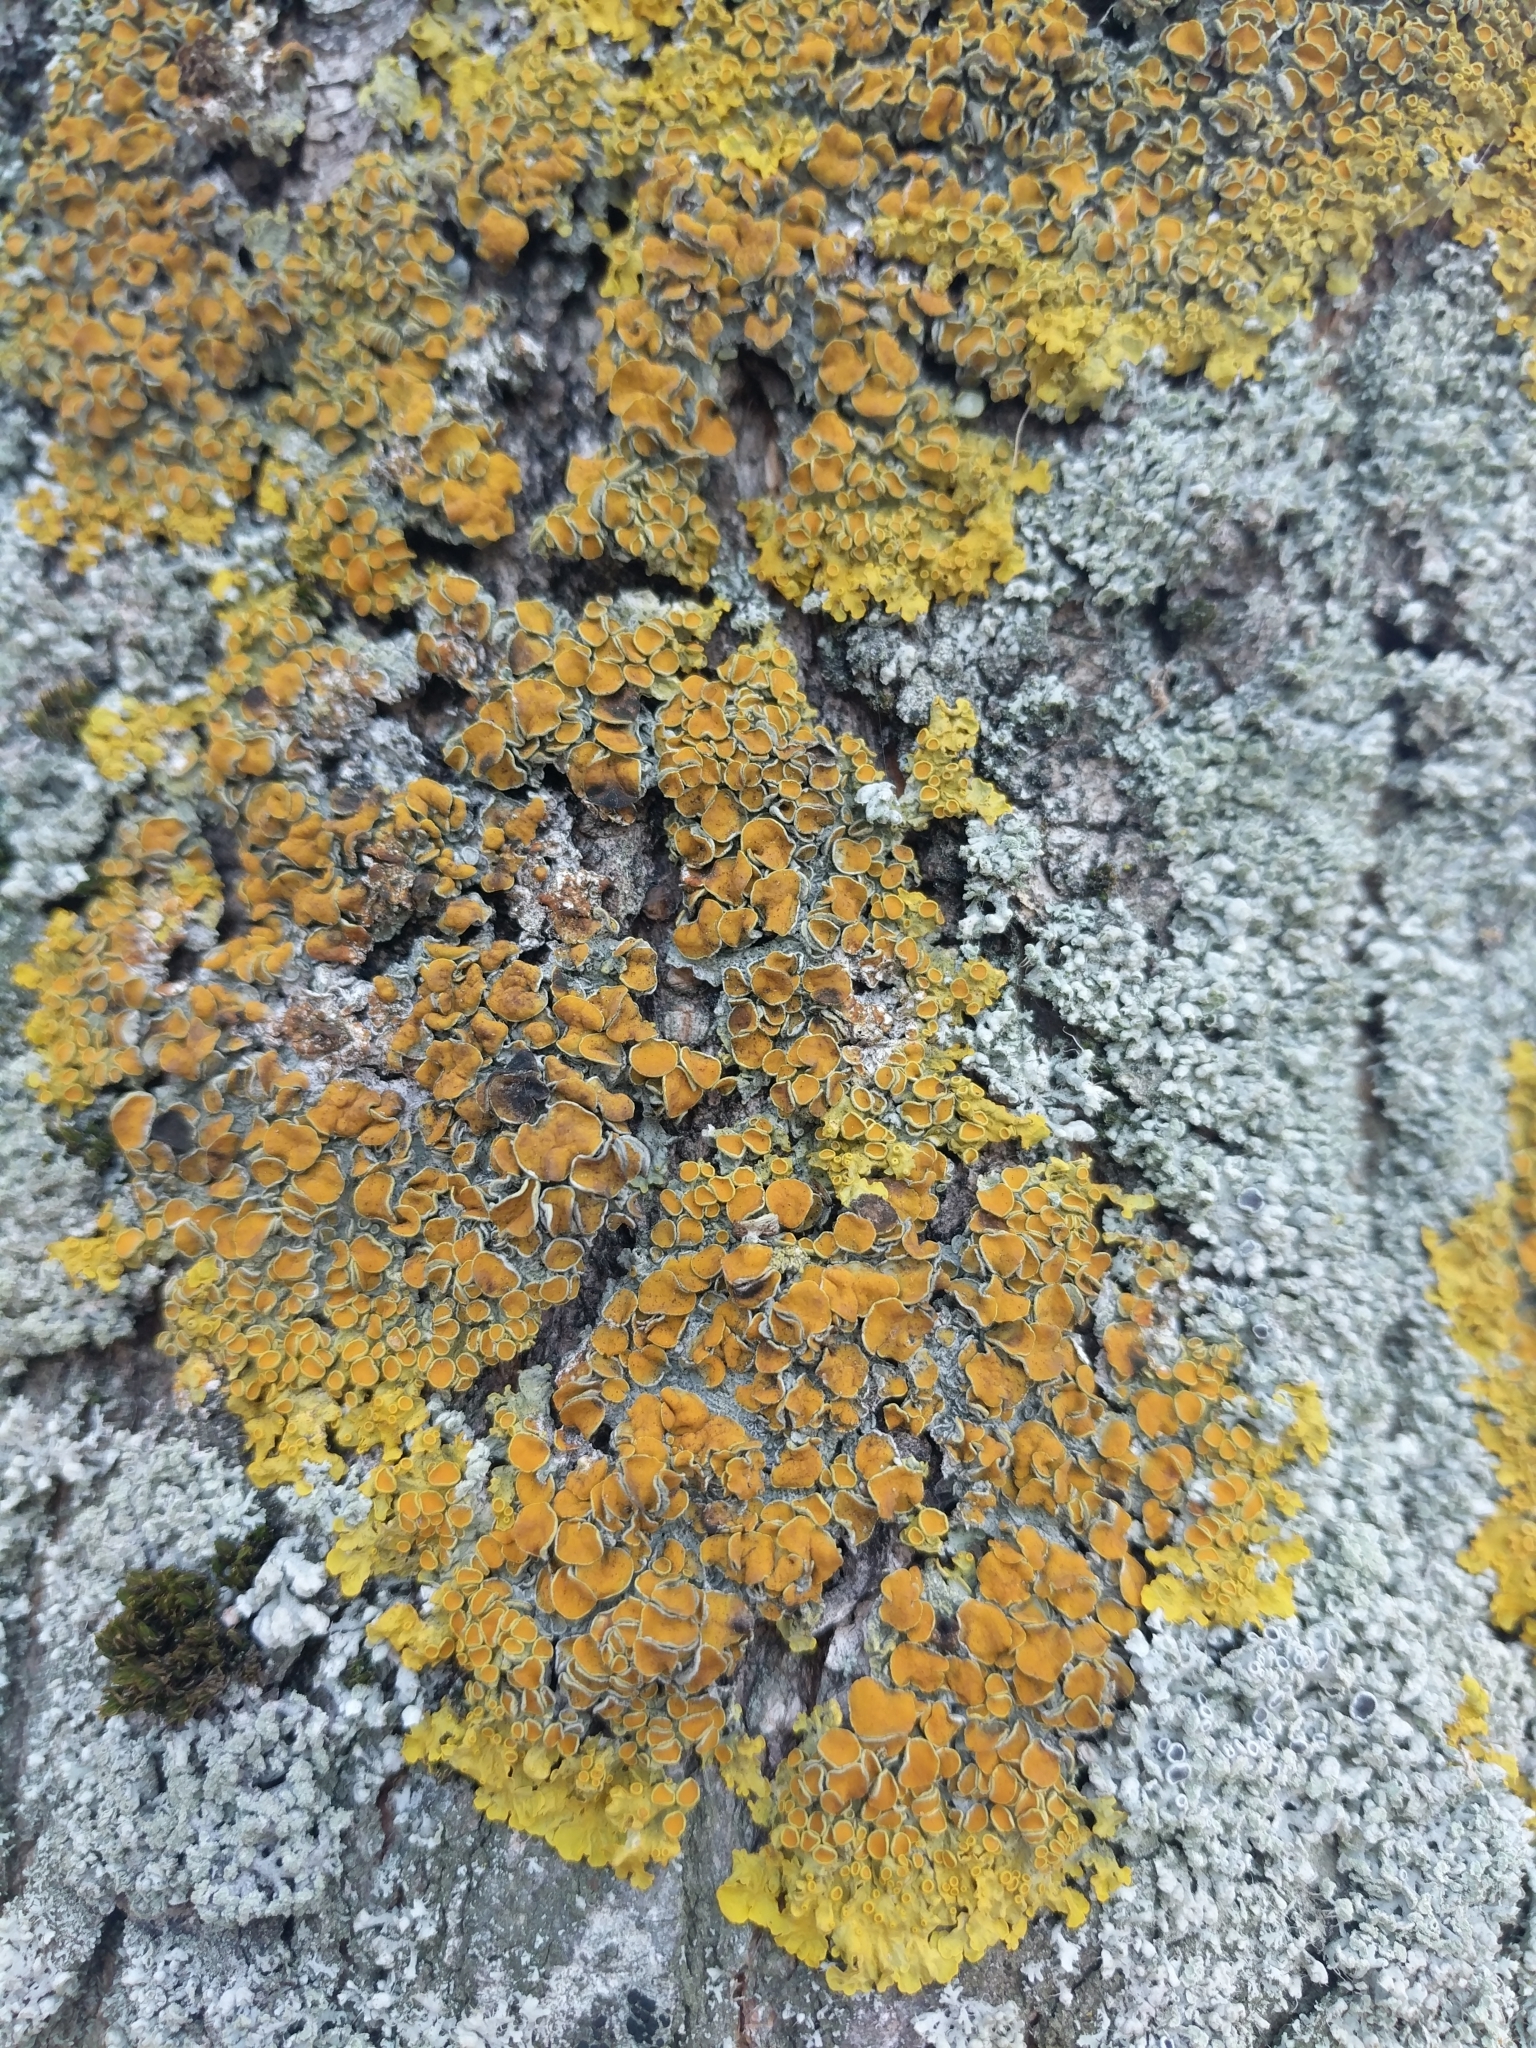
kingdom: Fungi
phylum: Ascomycota
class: Lecanoromycetes
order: Teloschistales
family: Teloschistaceae
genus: Xanthoria
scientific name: Xanthoria parietina
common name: Common orange lichen
